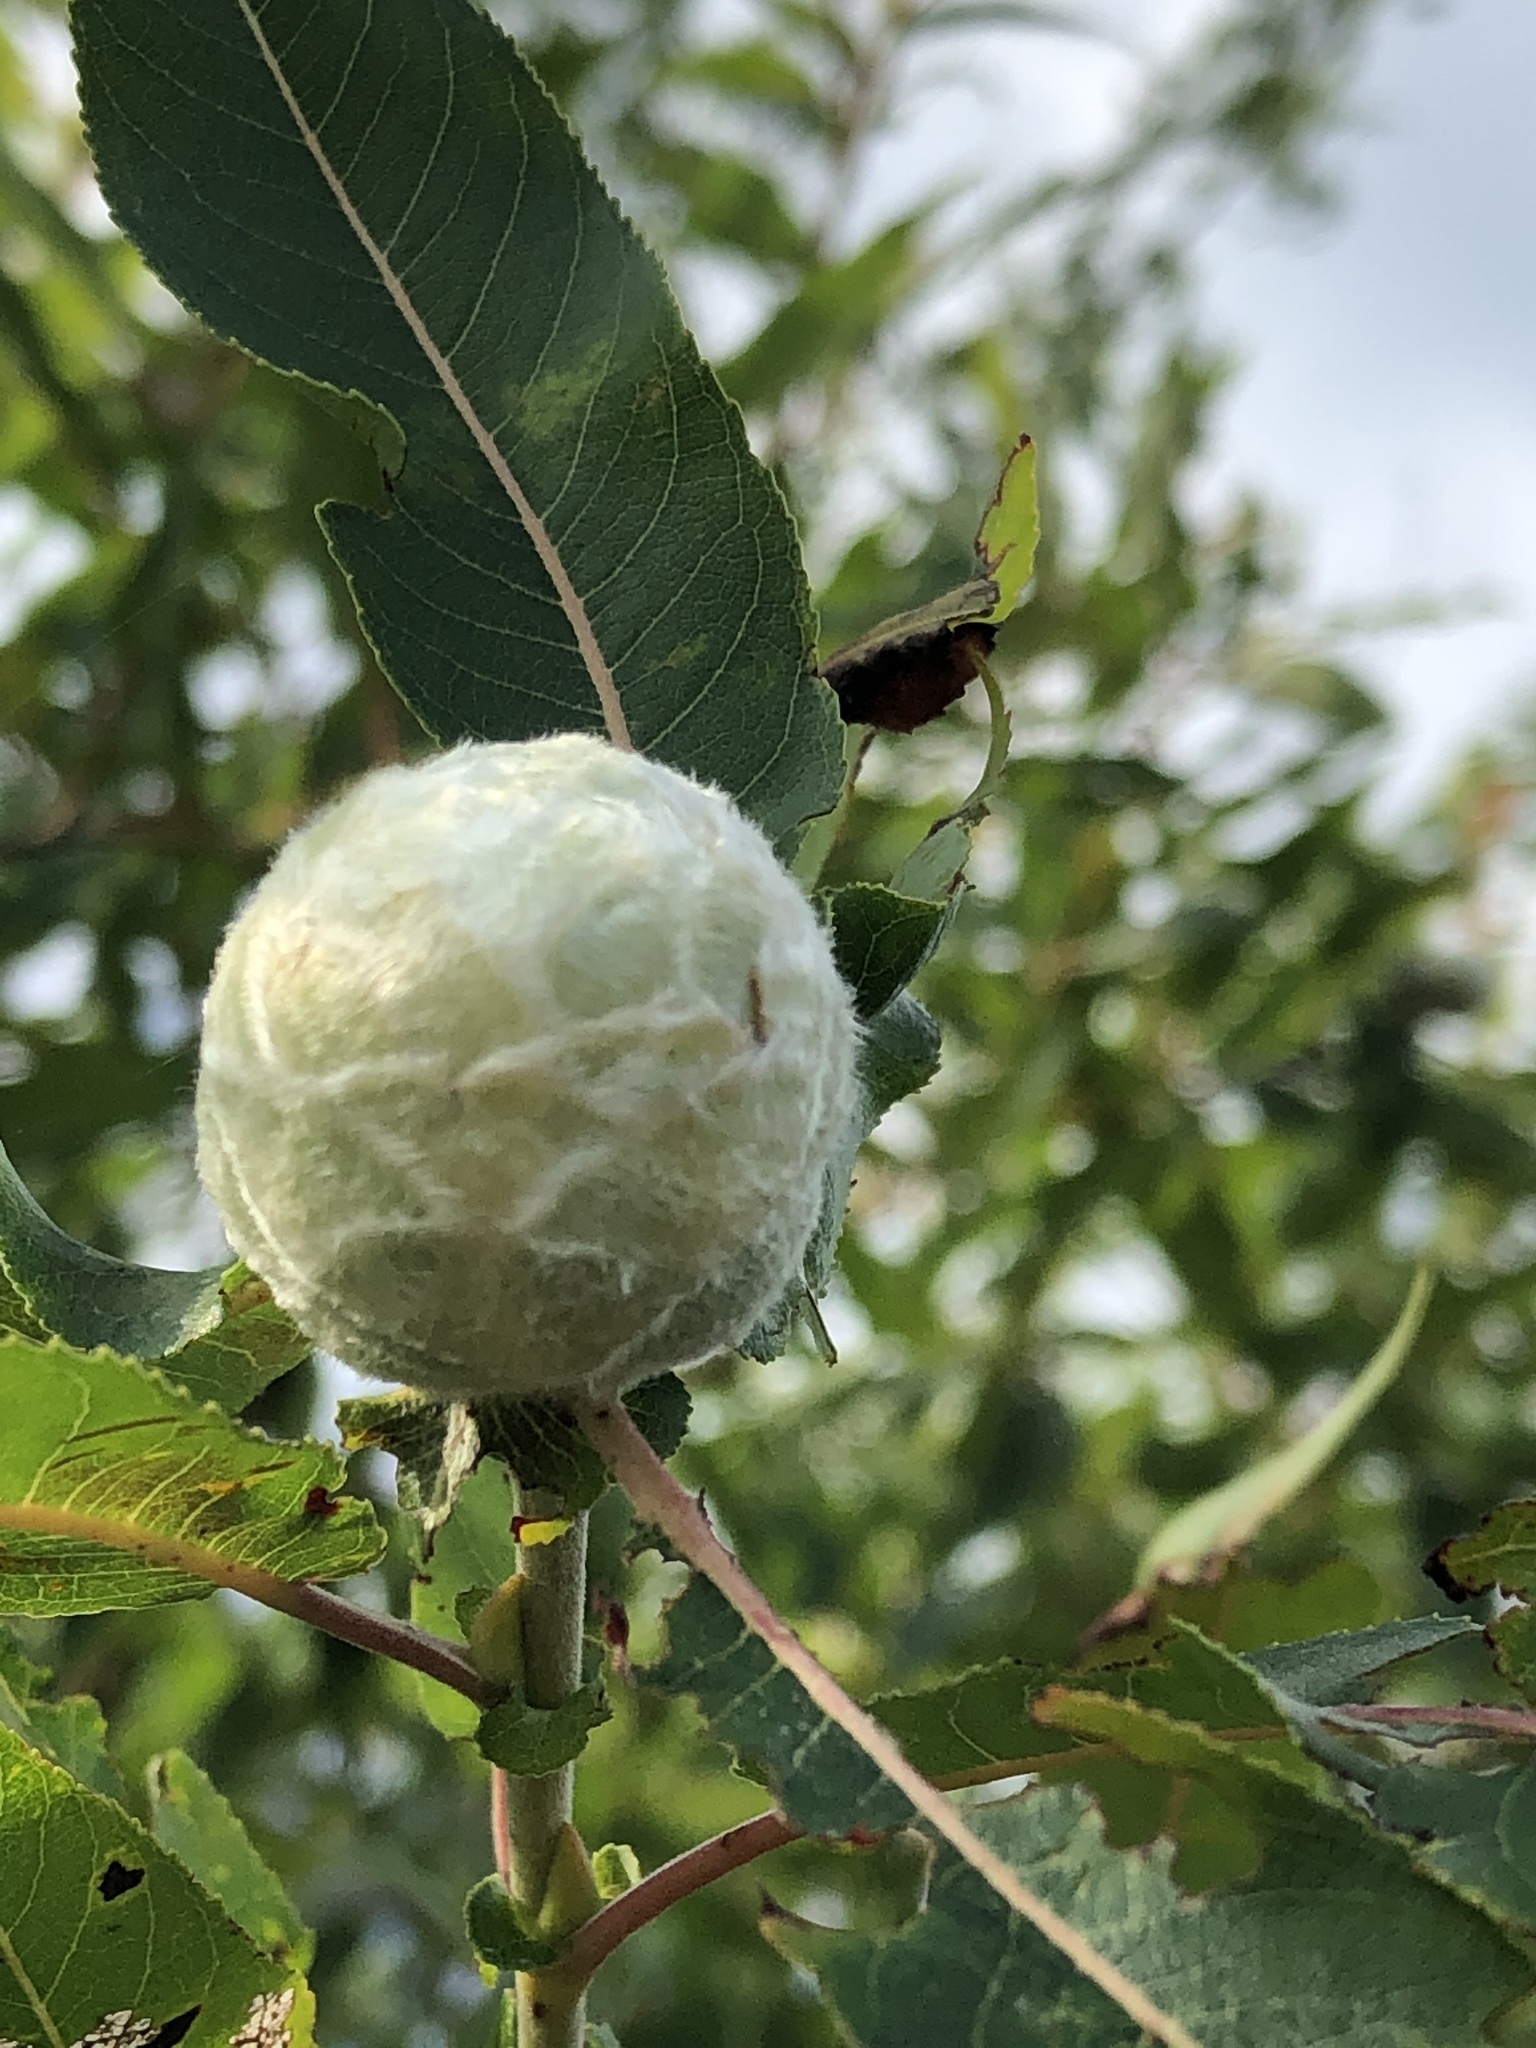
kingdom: Animalia
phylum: Arthropoda
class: Insecta
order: Diptera
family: Cecidomyiidae
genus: Rabdophaga
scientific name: Rabdophaga strobiloides
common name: Willow pinecone gall midge
